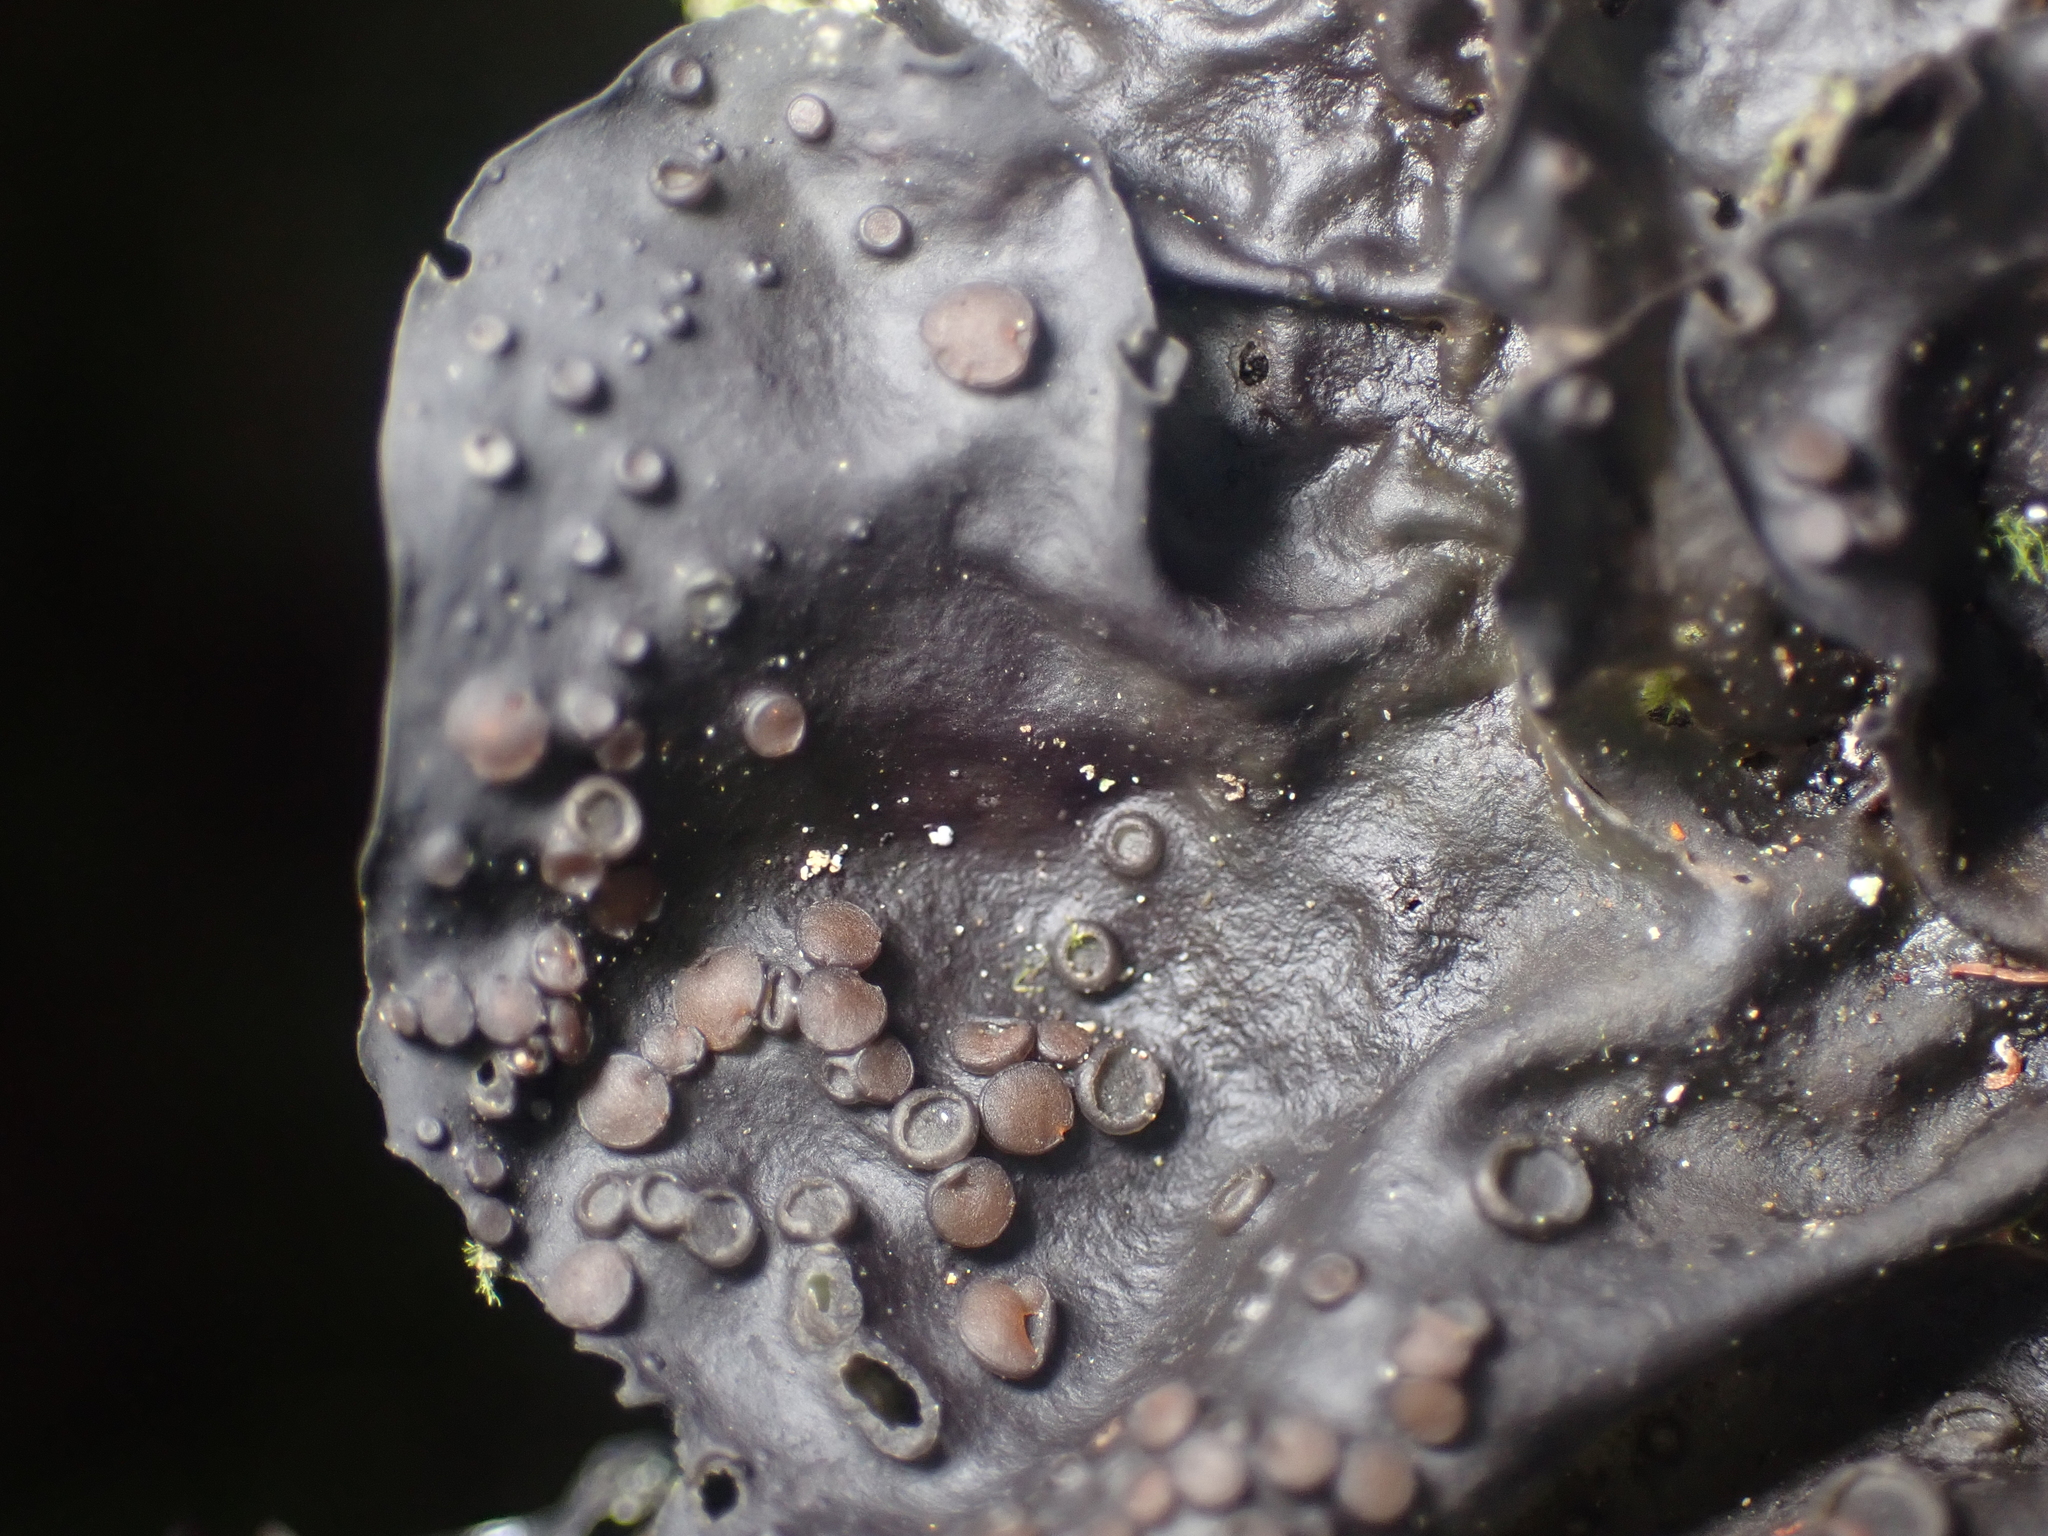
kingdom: Fungi
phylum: Ascomycota
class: Lecanoromycetes
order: Peltigerales
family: Collemataceae
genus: Collema
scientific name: Collema subconveniens
